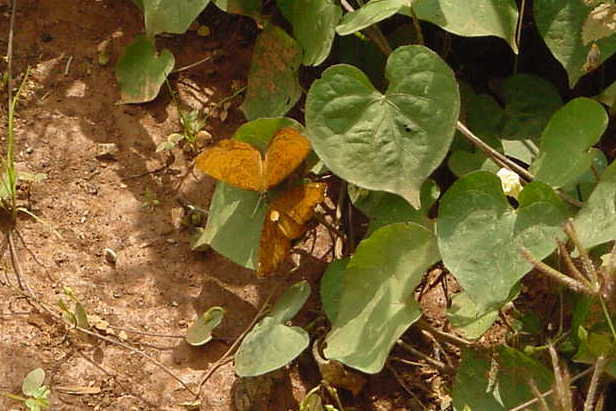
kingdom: Animalia
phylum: Arthropoda
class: Insecta
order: Lepidoptera
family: Nymphalidae
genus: Ariadne
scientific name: Ariadne merione
